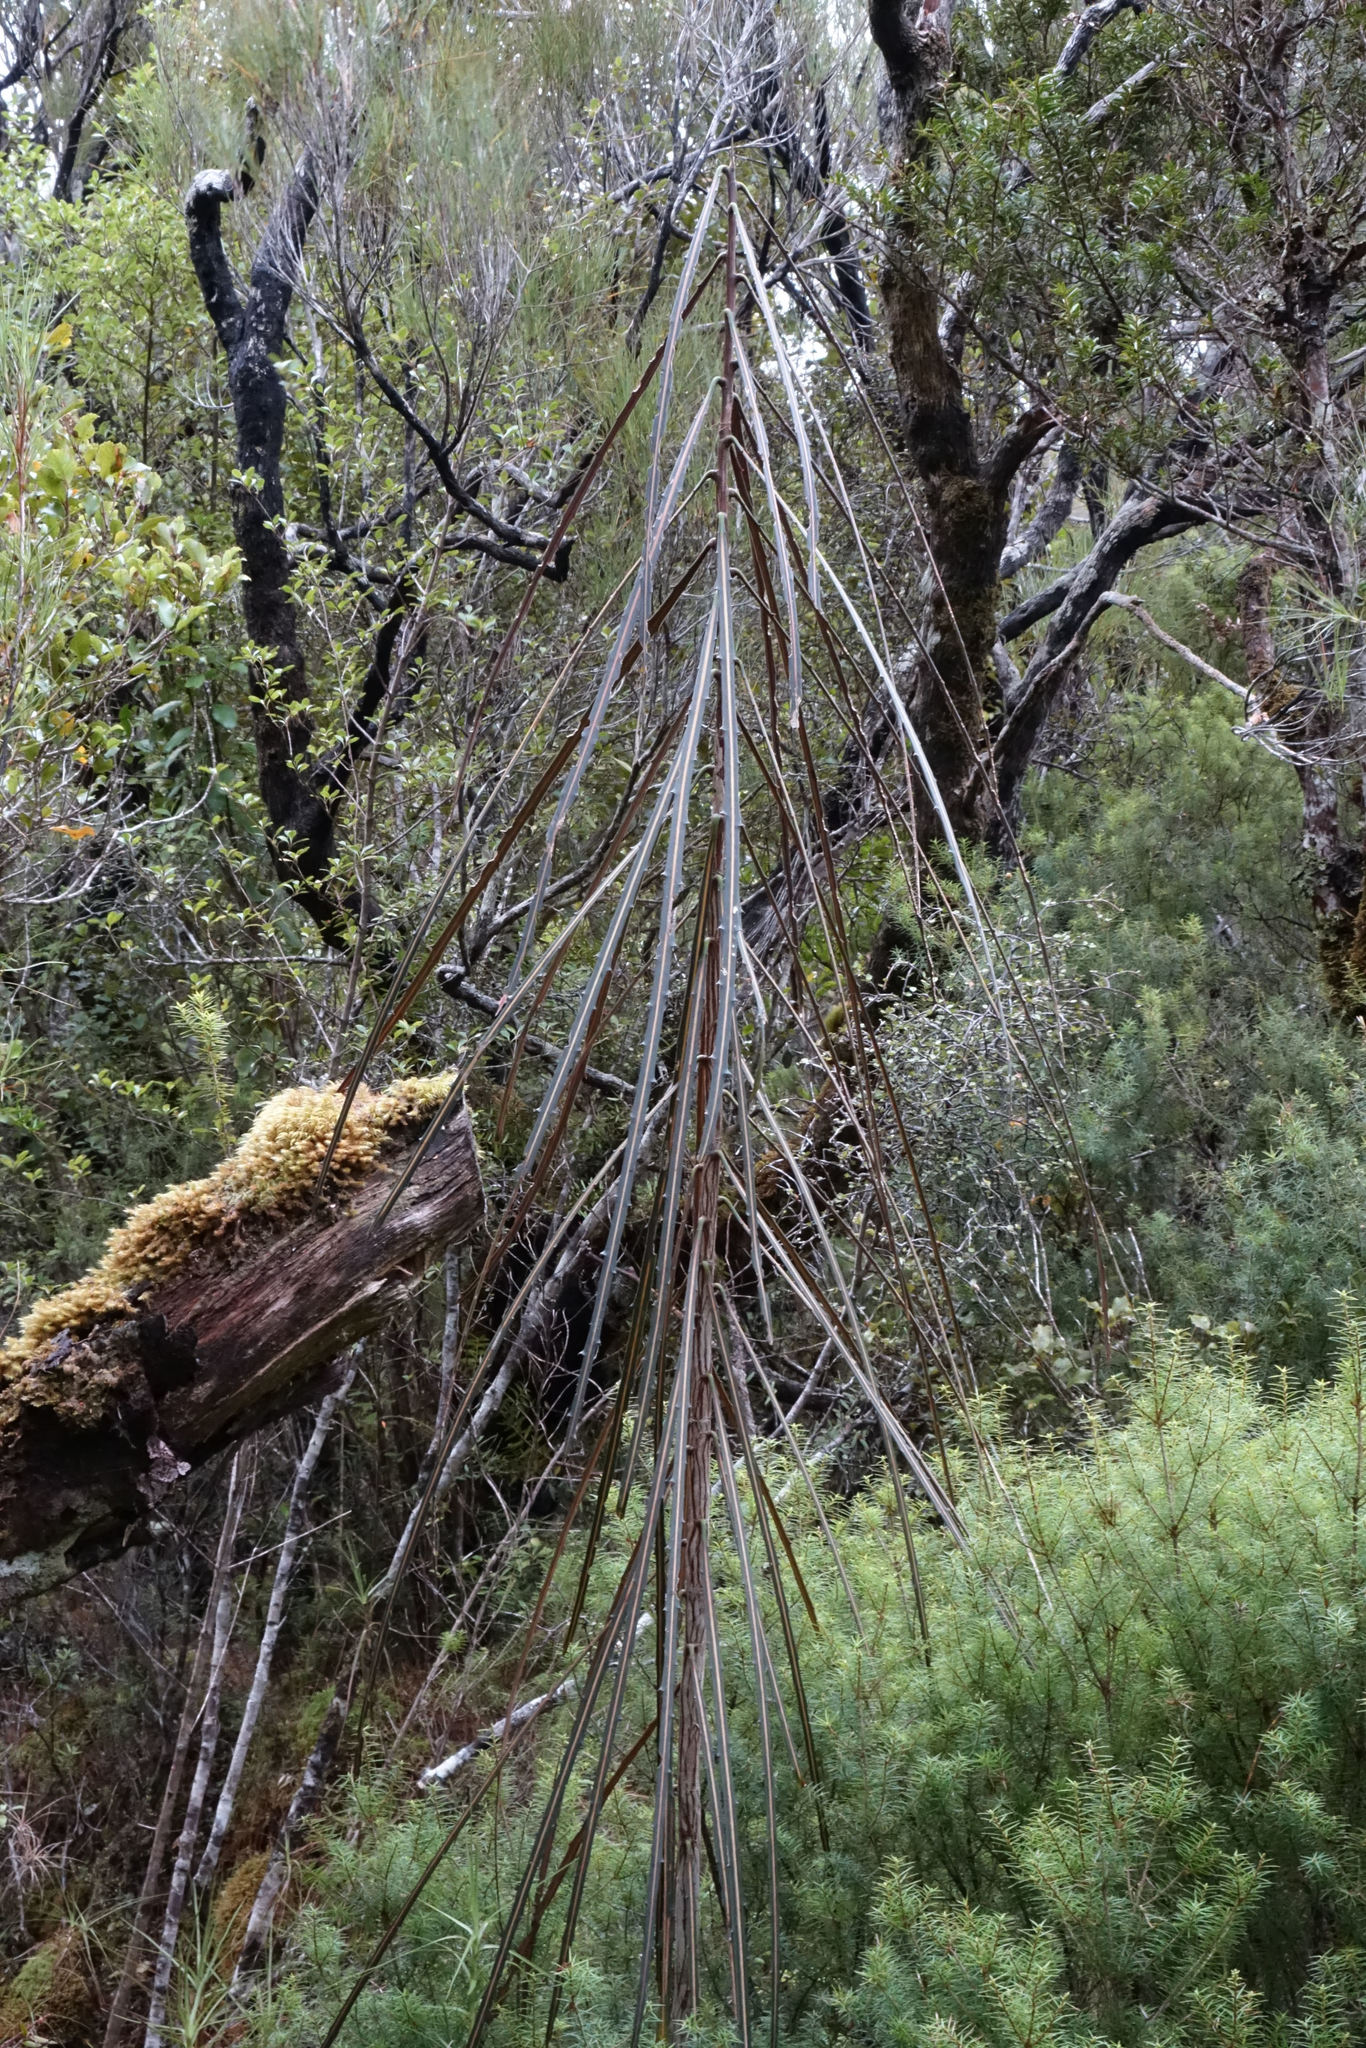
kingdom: Plantae
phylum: Tracheophyta
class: Magnoliopsida
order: Apiales
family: Araliaceae
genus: Pseudopanax
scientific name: Pseudopanax crassifolius
